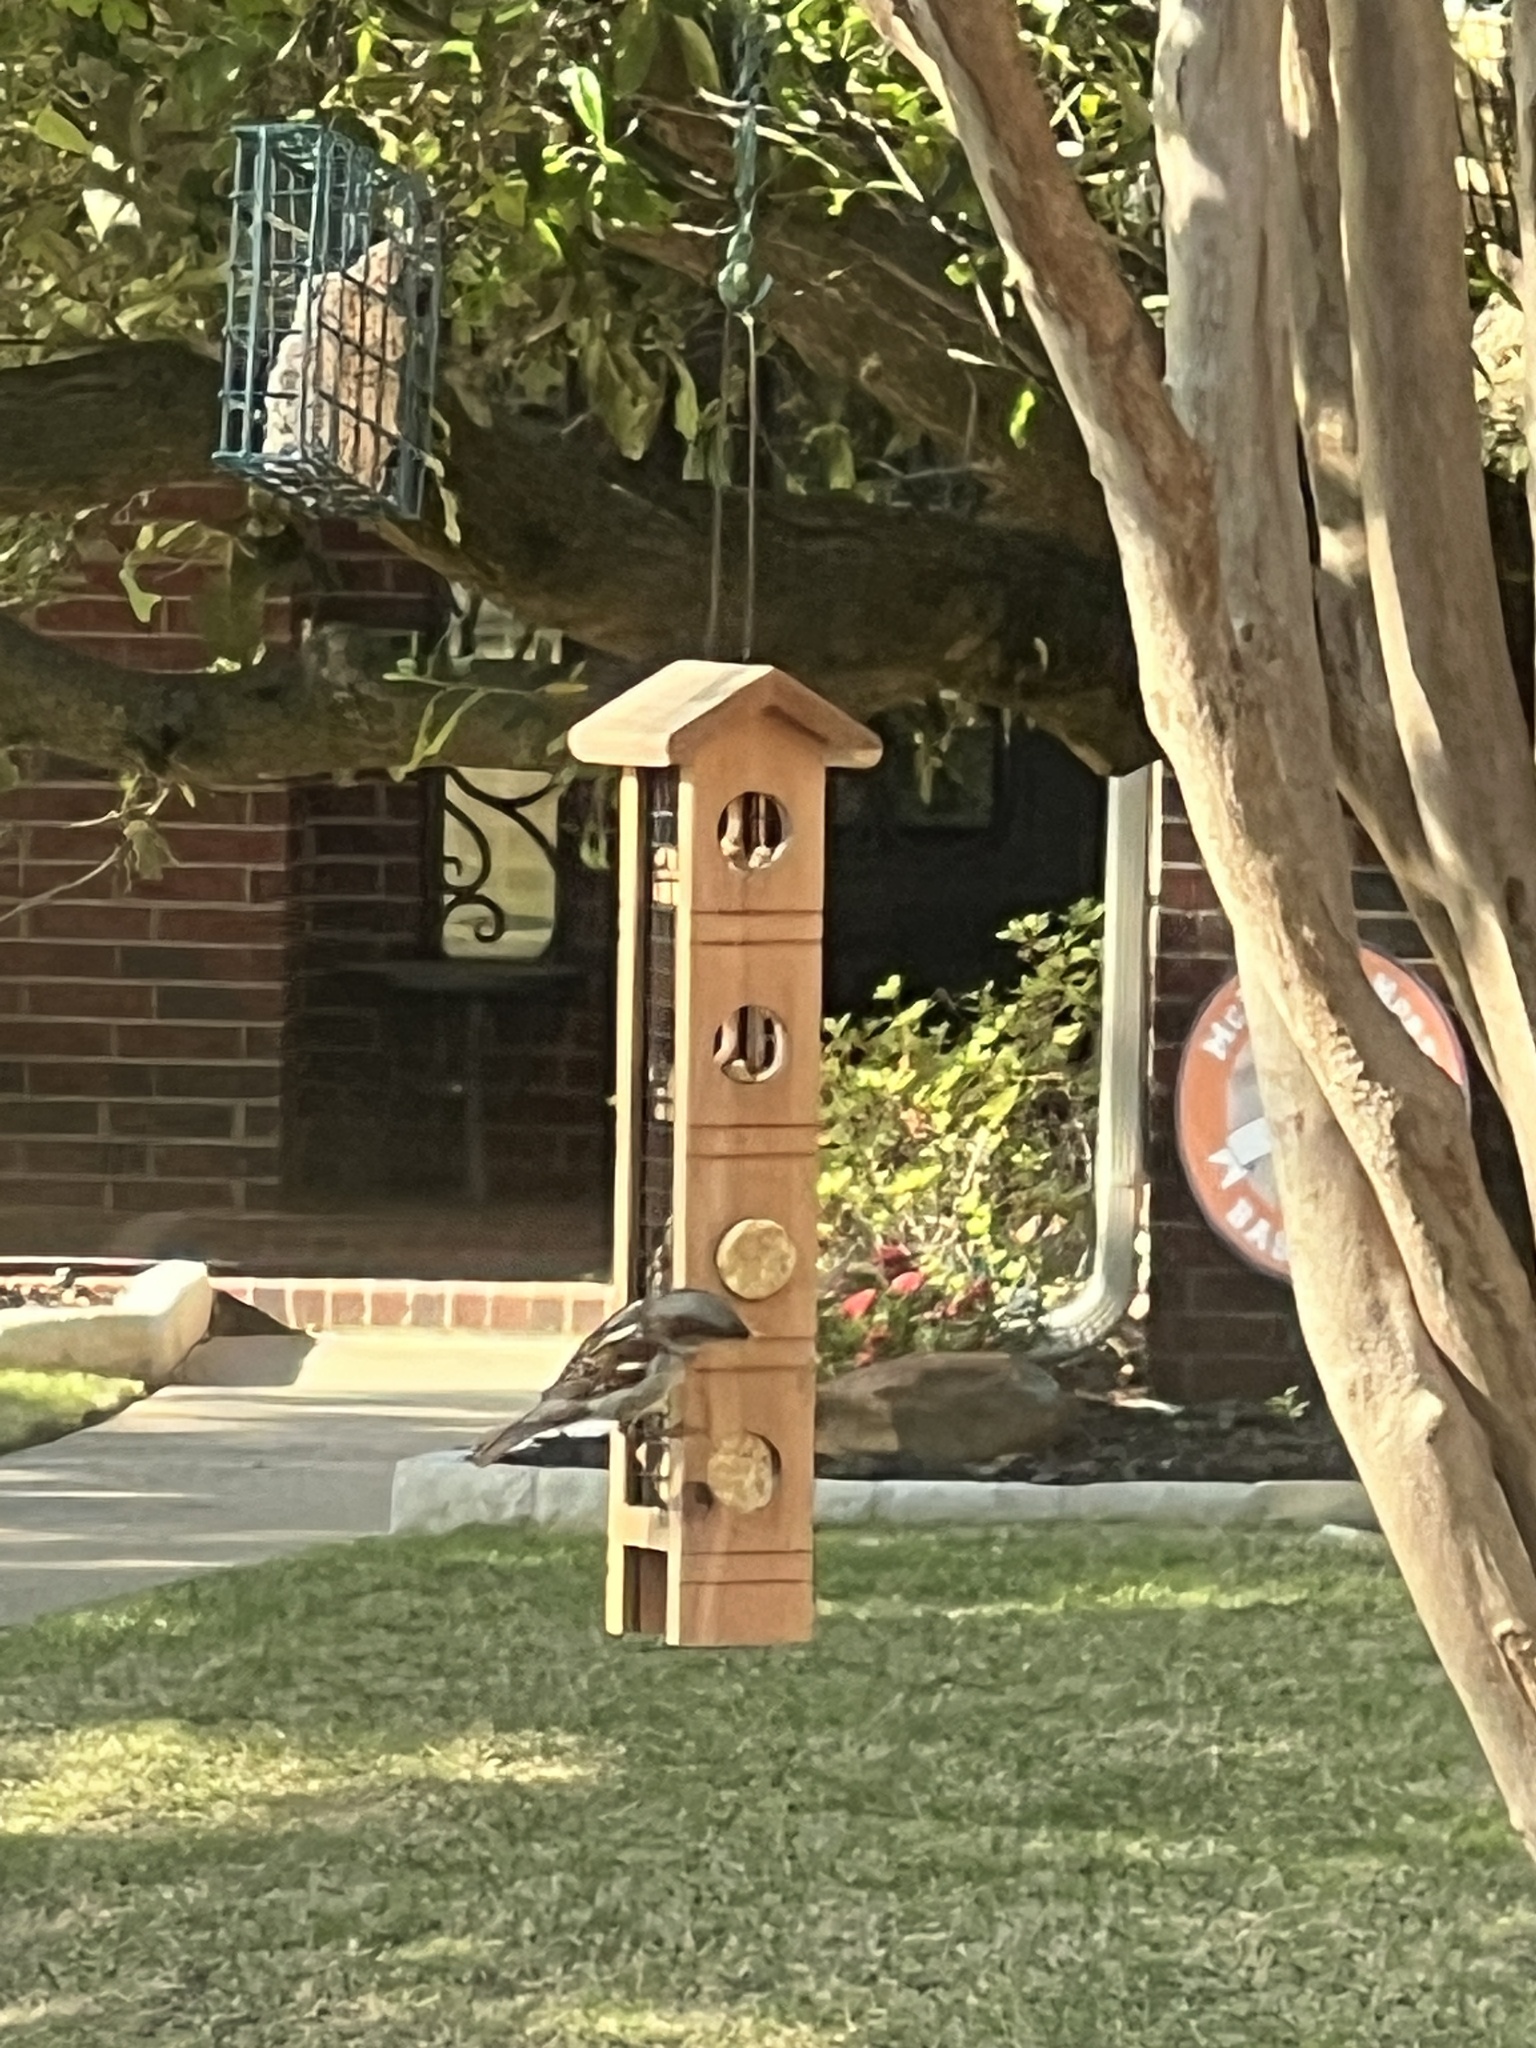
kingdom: Animalia
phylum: Chordata
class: Aves
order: Passeriformes
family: Passeridae
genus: Passer
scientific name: Passer domesticus
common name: House sparrow
